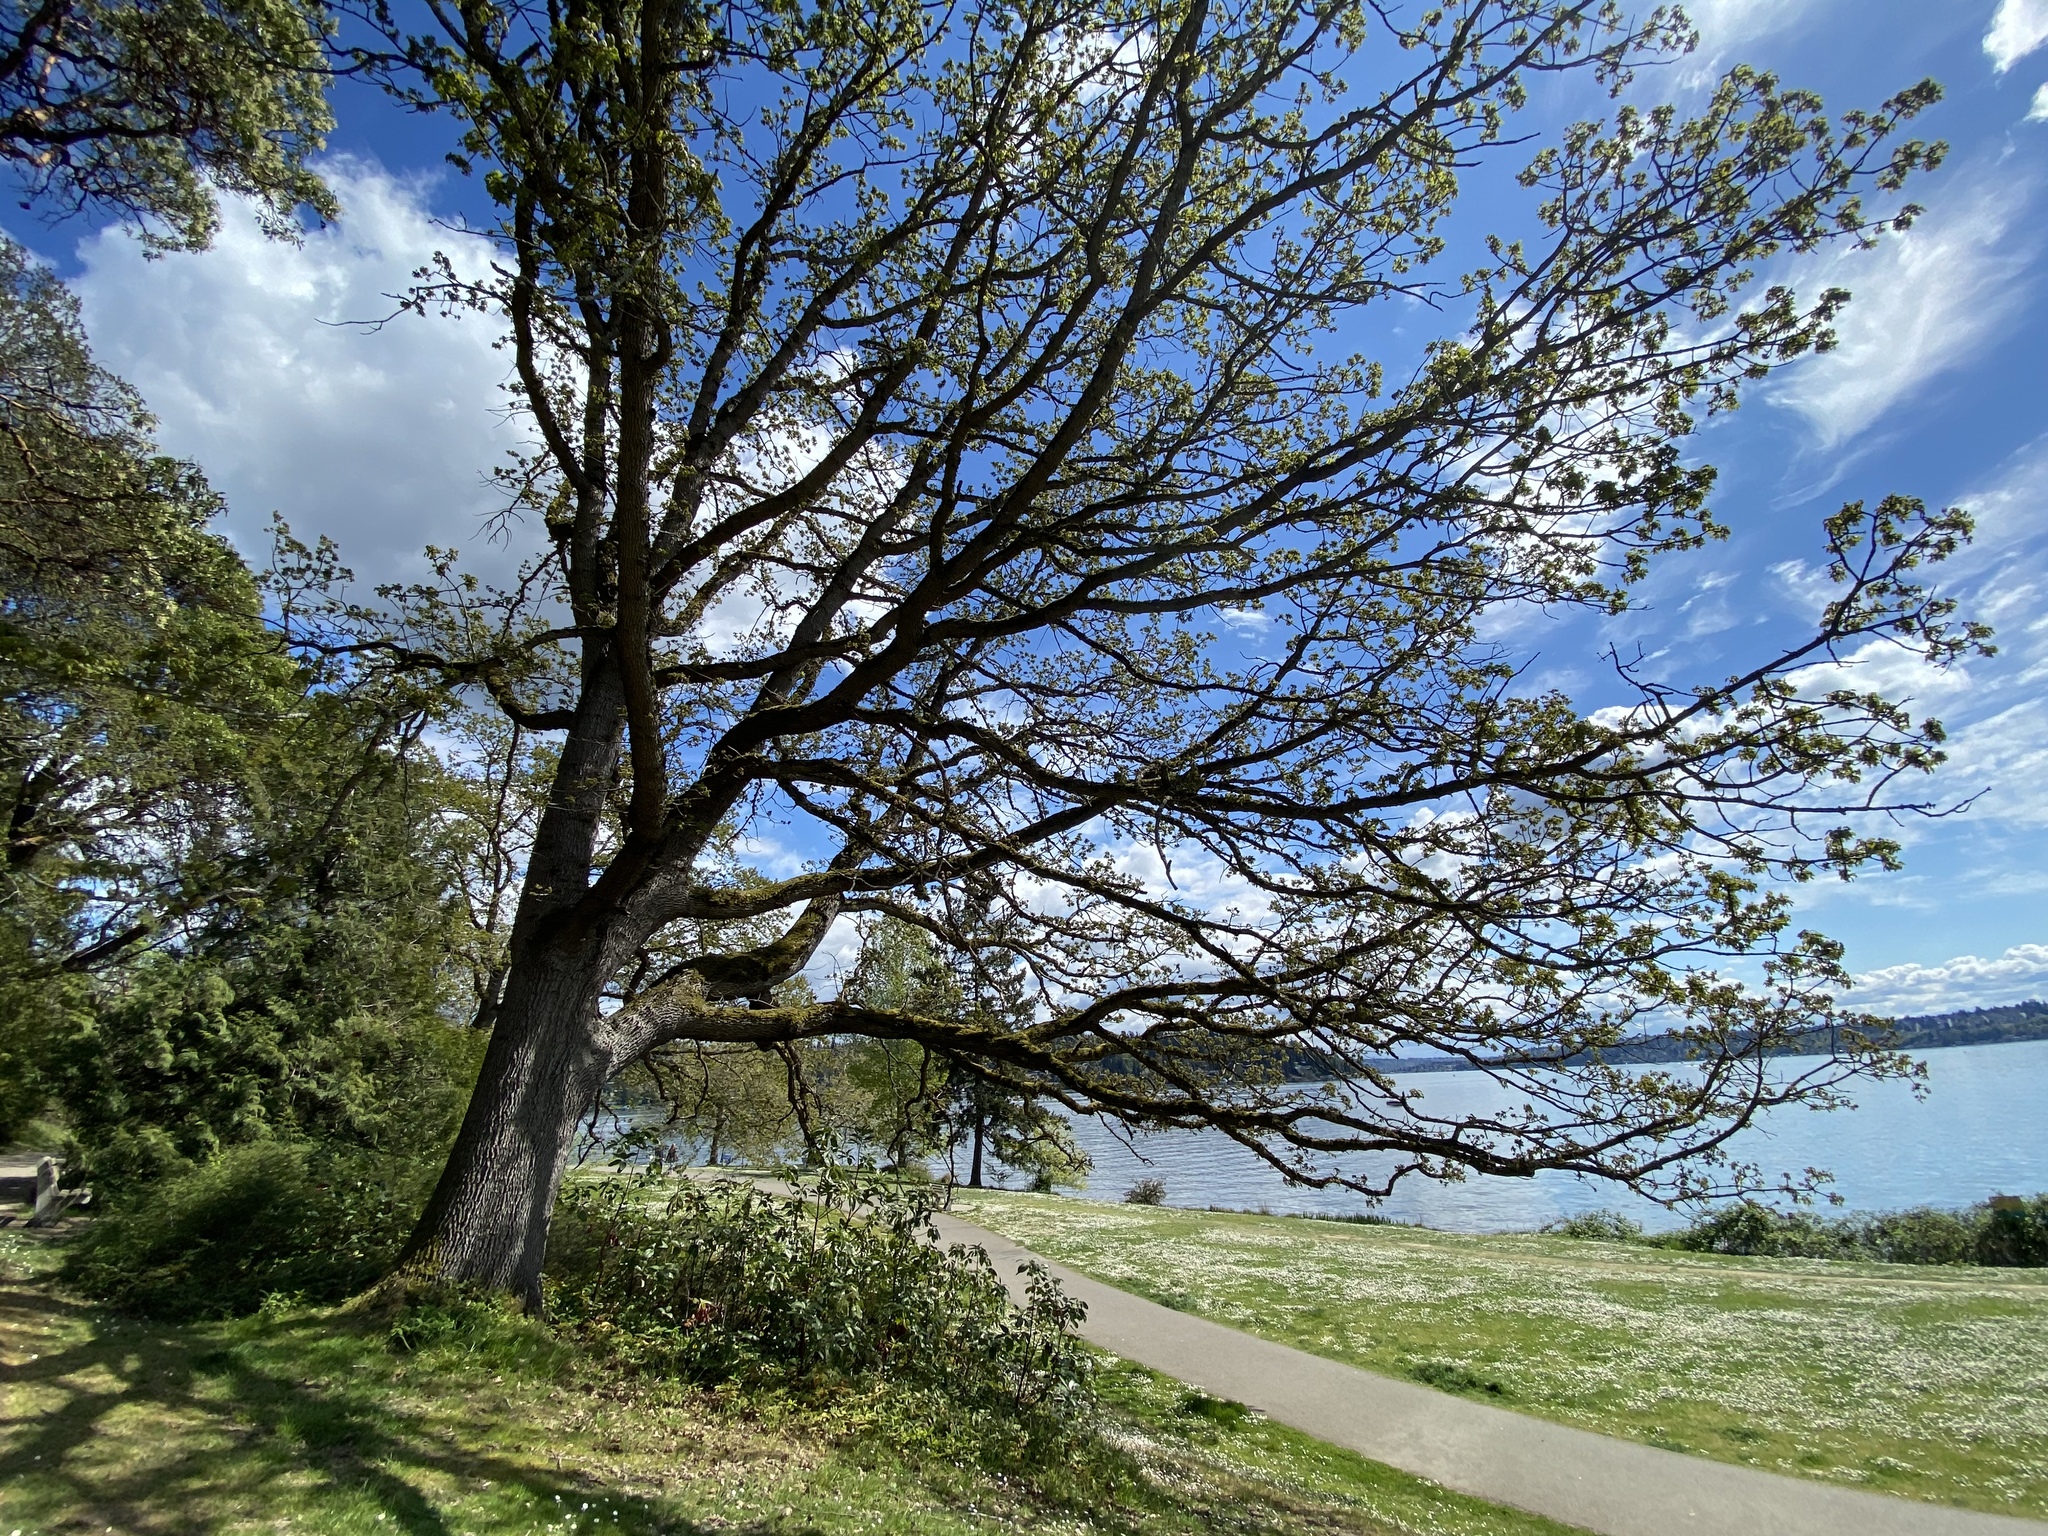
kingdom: Plantae
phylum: Tracheophyta
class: Magnoliopsida
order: Fagales
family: Fagaceae
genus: Quercus
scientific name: Quercus garryana
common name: Garry oak
